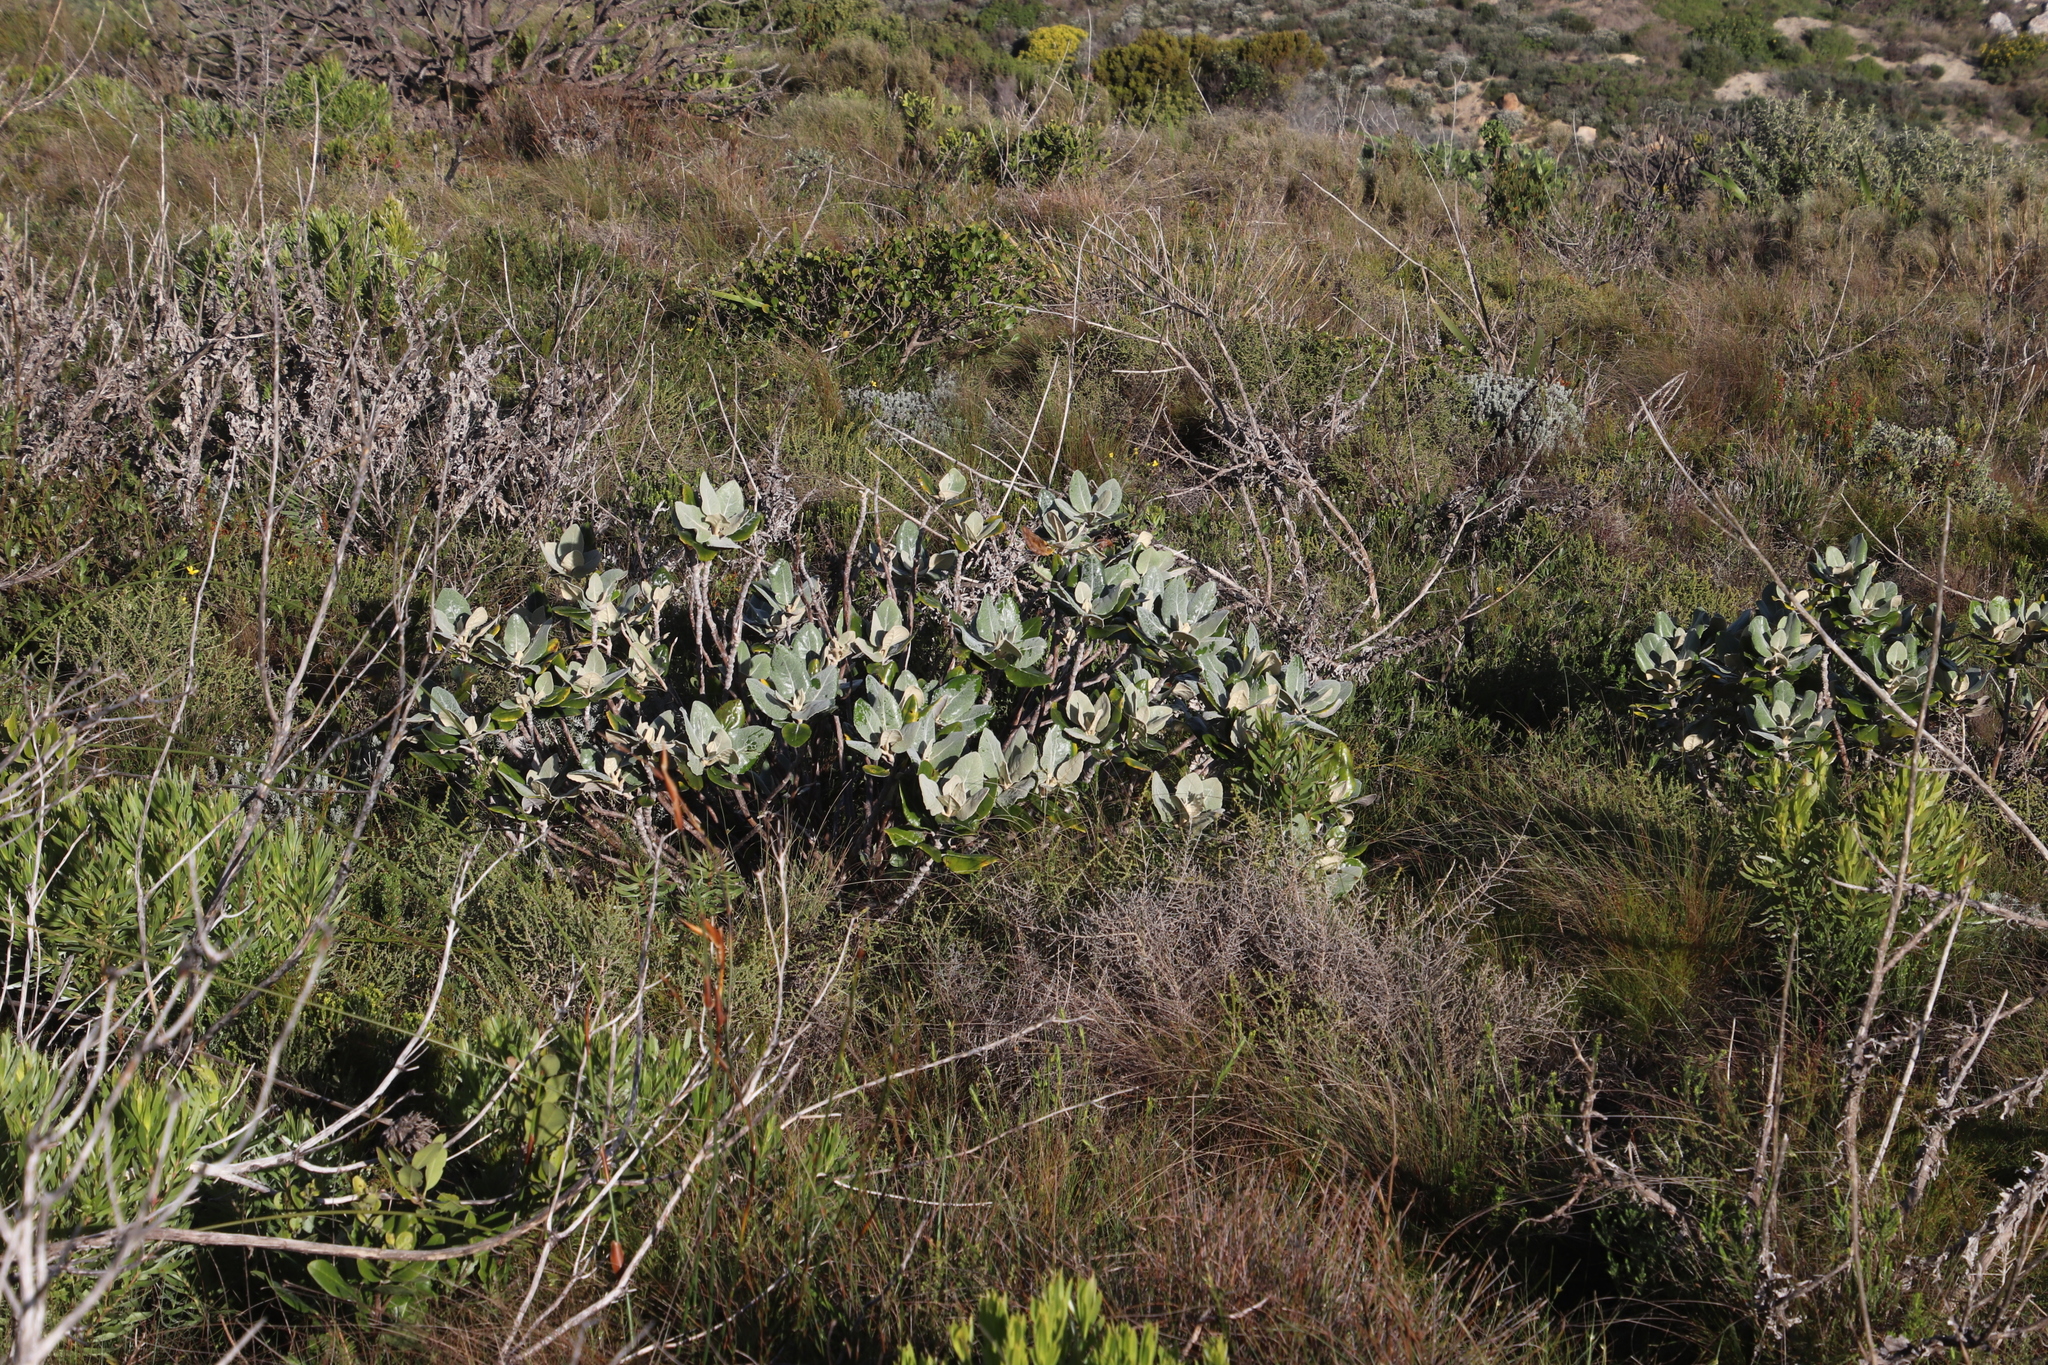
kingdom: Plantae
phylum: Tracheophyta
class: Magnoliopsida
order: Asterales
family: Asteraceae
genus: Capelio
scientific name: Capelio tabularis
